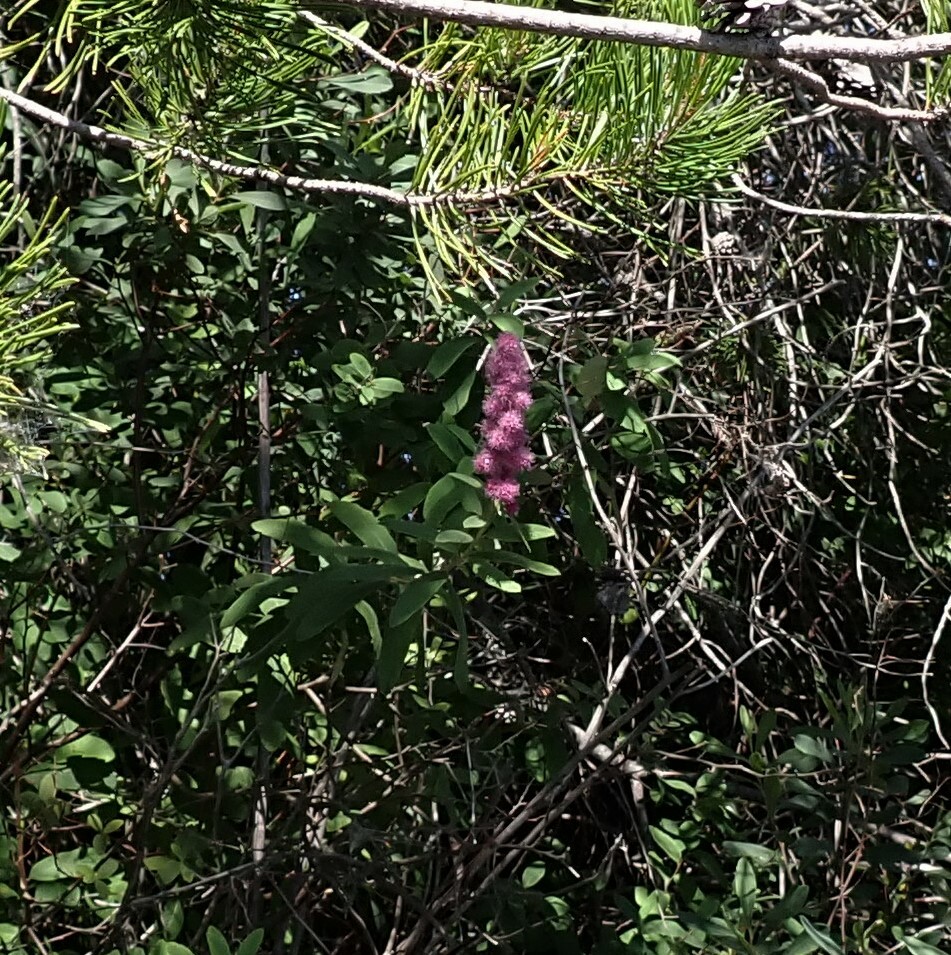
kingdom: Plantae
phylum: Tracheophyta
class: Magnoliopsida
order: Rosales
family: Rosaceae
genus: Spiraea
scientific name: Spiraea douglasii
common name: Steeplebush
